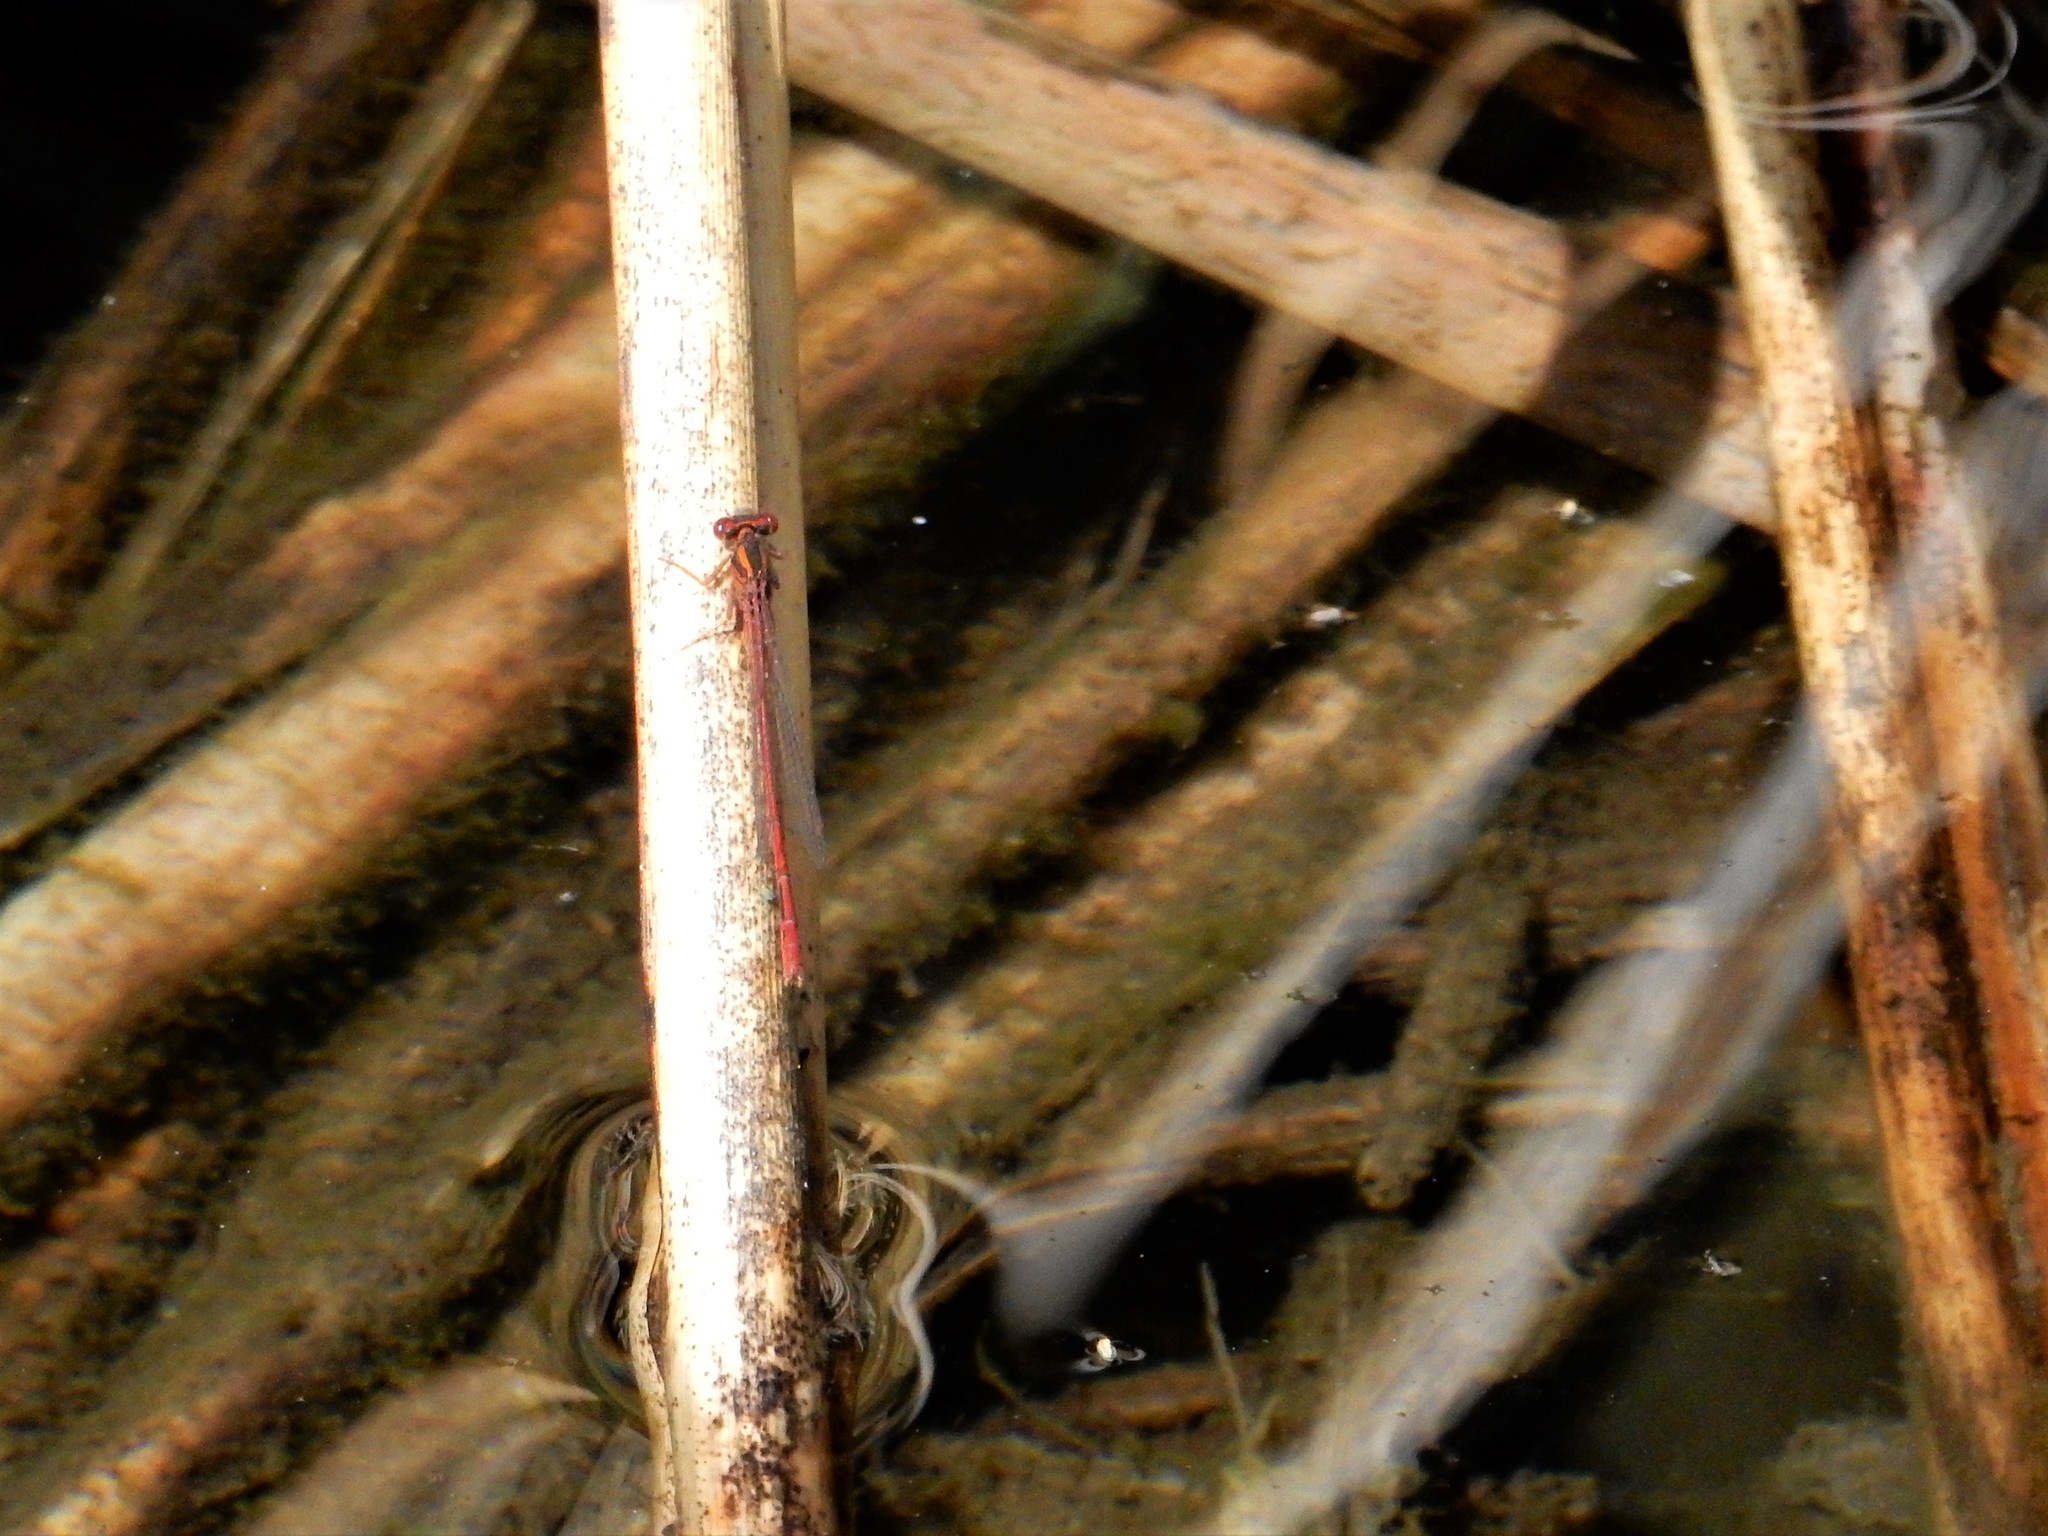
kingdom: Animalia
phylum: Arthropoda
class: Insecta
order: Odonata
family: Coenagrionidae
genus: Xanthocnemis
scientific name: Xanthocnemis zealandica
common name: Common redcoat damselfly
